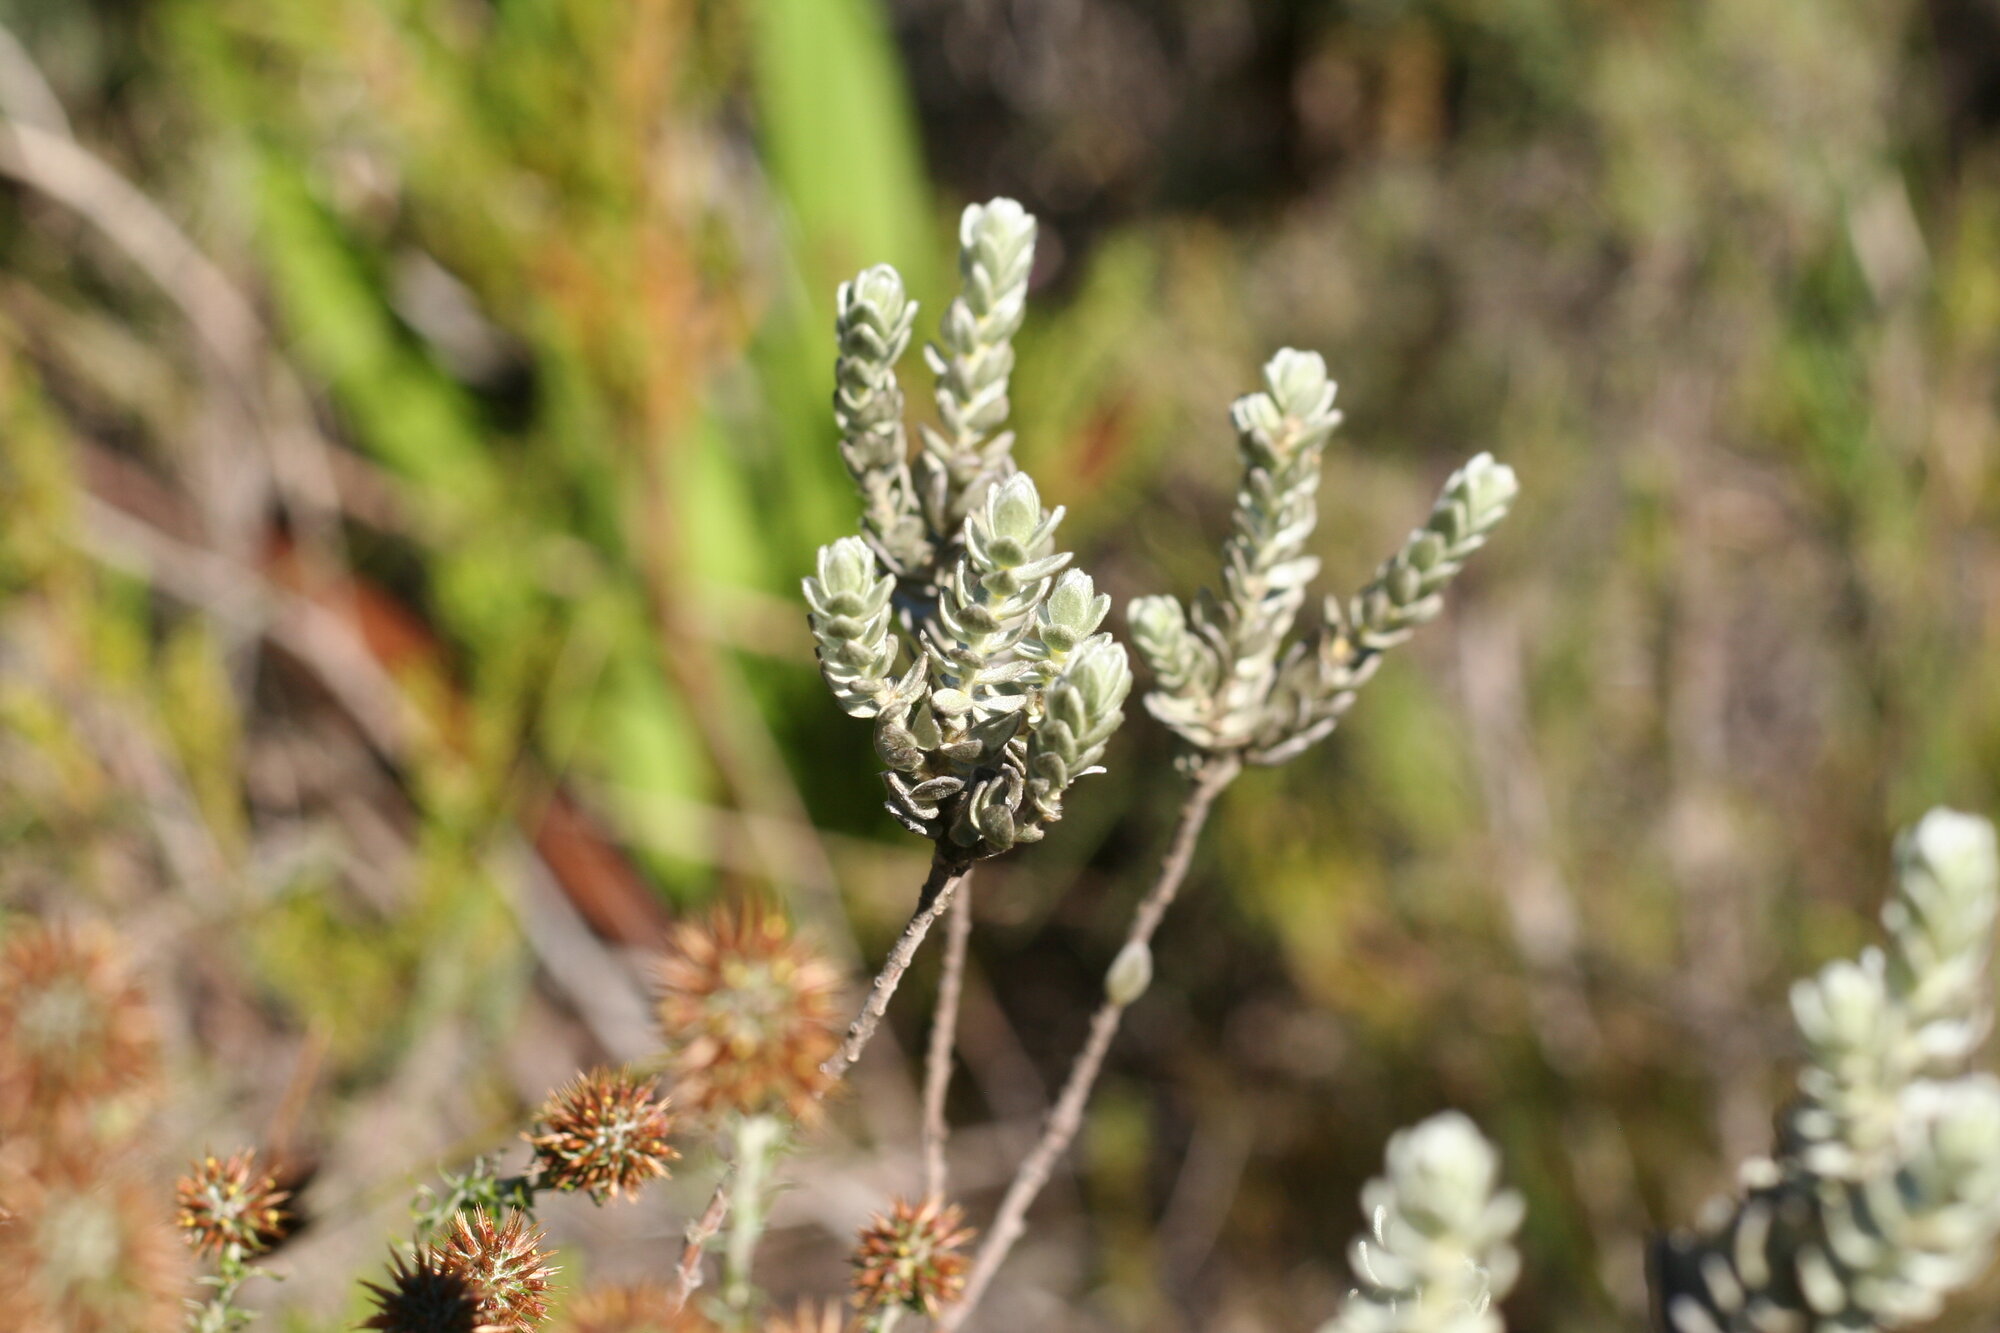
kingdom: Plantae
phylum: Tracheophyta
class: Magnoliopsida
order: Malvales
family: Thymelaeaceae
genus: Gnidia
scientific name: Gnidia imbricata
